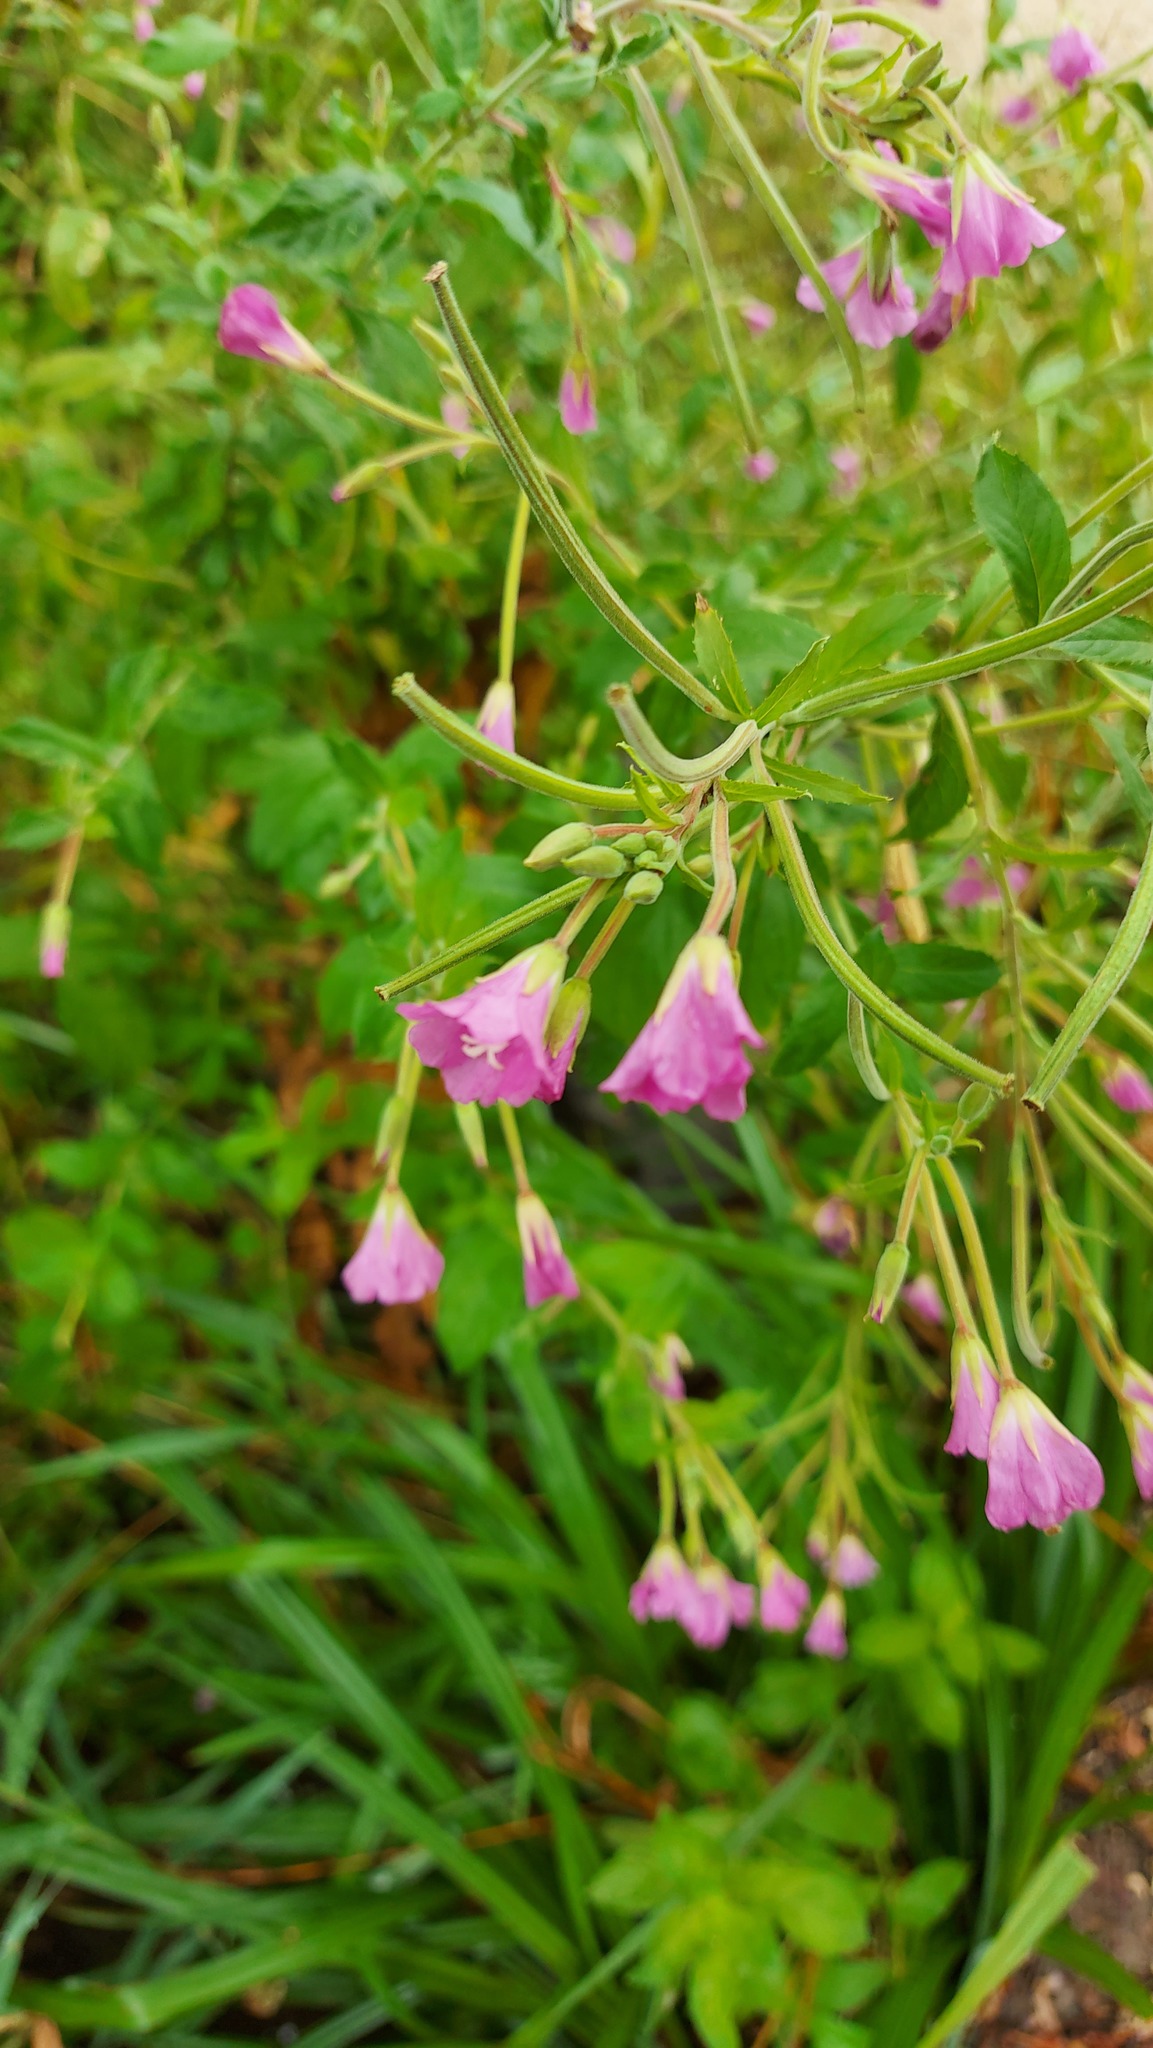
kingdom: Plantae
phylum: Tracheophyta
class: Magnoliopsida
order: Myrtales
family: Onagraceae
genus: Epilobium
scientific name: Epilobium hirsutum
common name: Great willowherb
